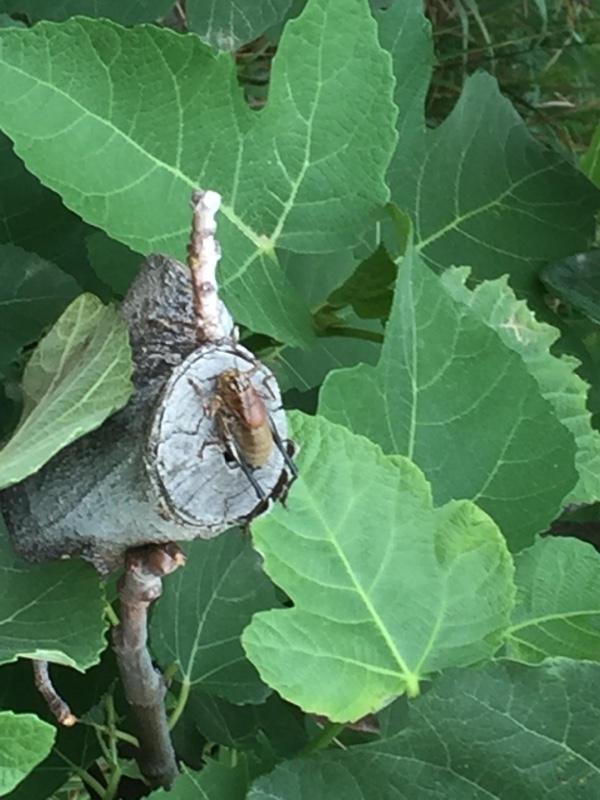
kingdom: Animalia
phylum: Arthropoda
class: Insecta
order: Orthoptera
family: Tettigoniidae
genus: Uvarovistia
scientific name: Uvarovistia satunini
